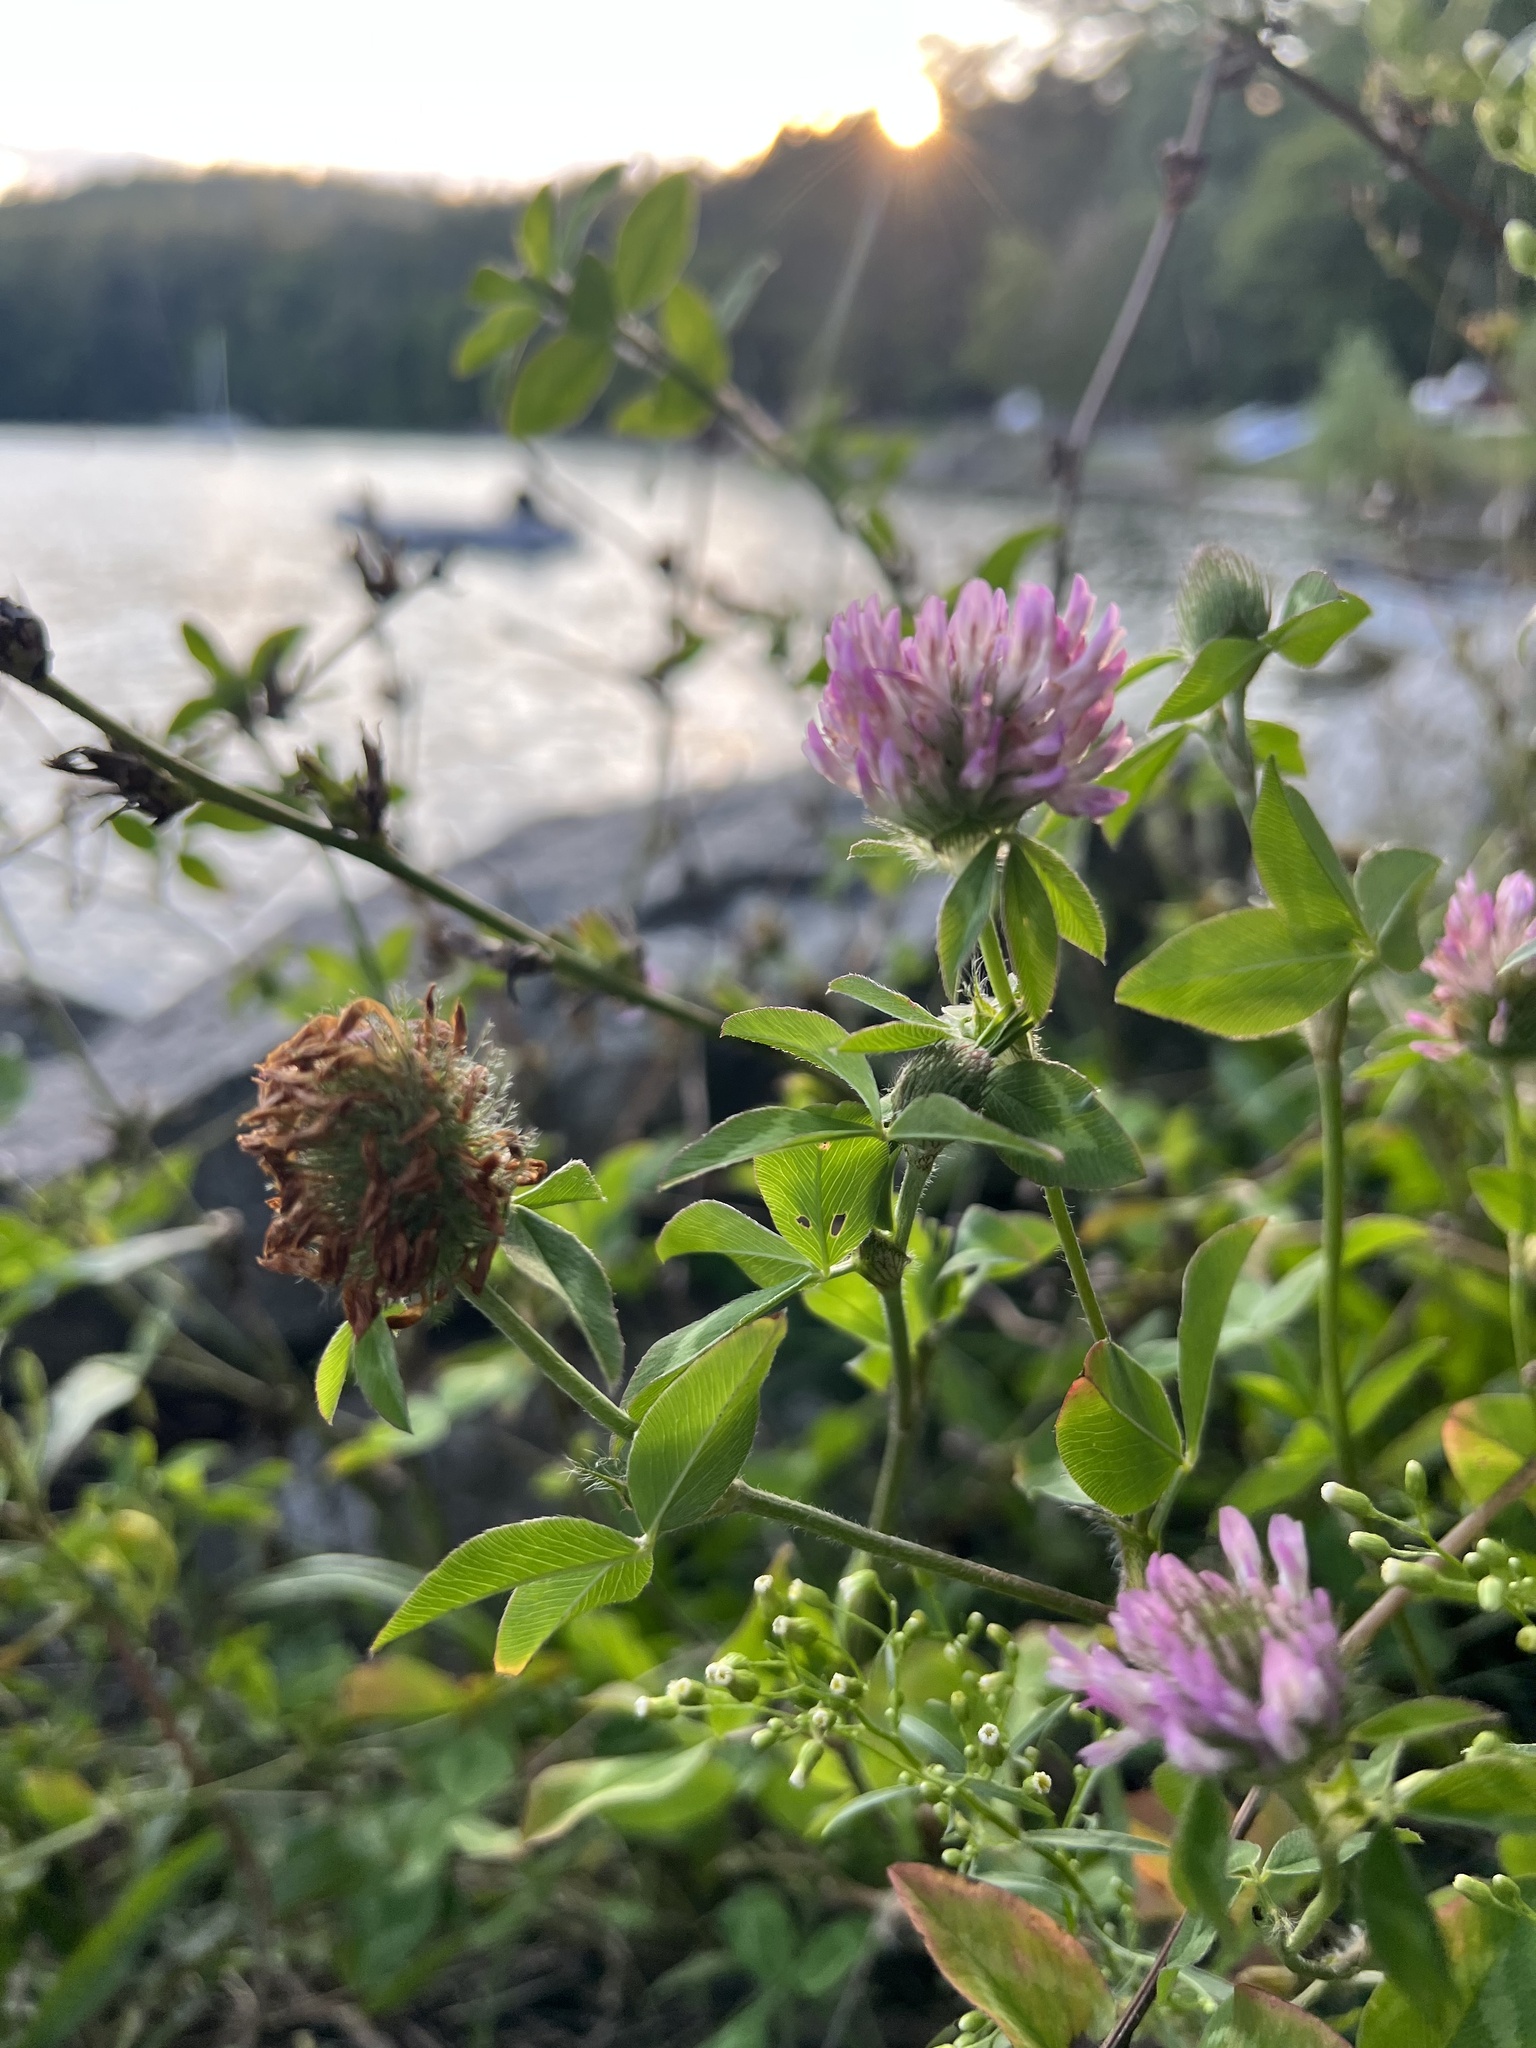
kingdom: Plantae
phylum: Tracheophyta
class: Magnoliopsida
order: Fabales
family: Fabaceae
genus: Trifolium
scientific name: Trifolium pratense
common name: Red clover
